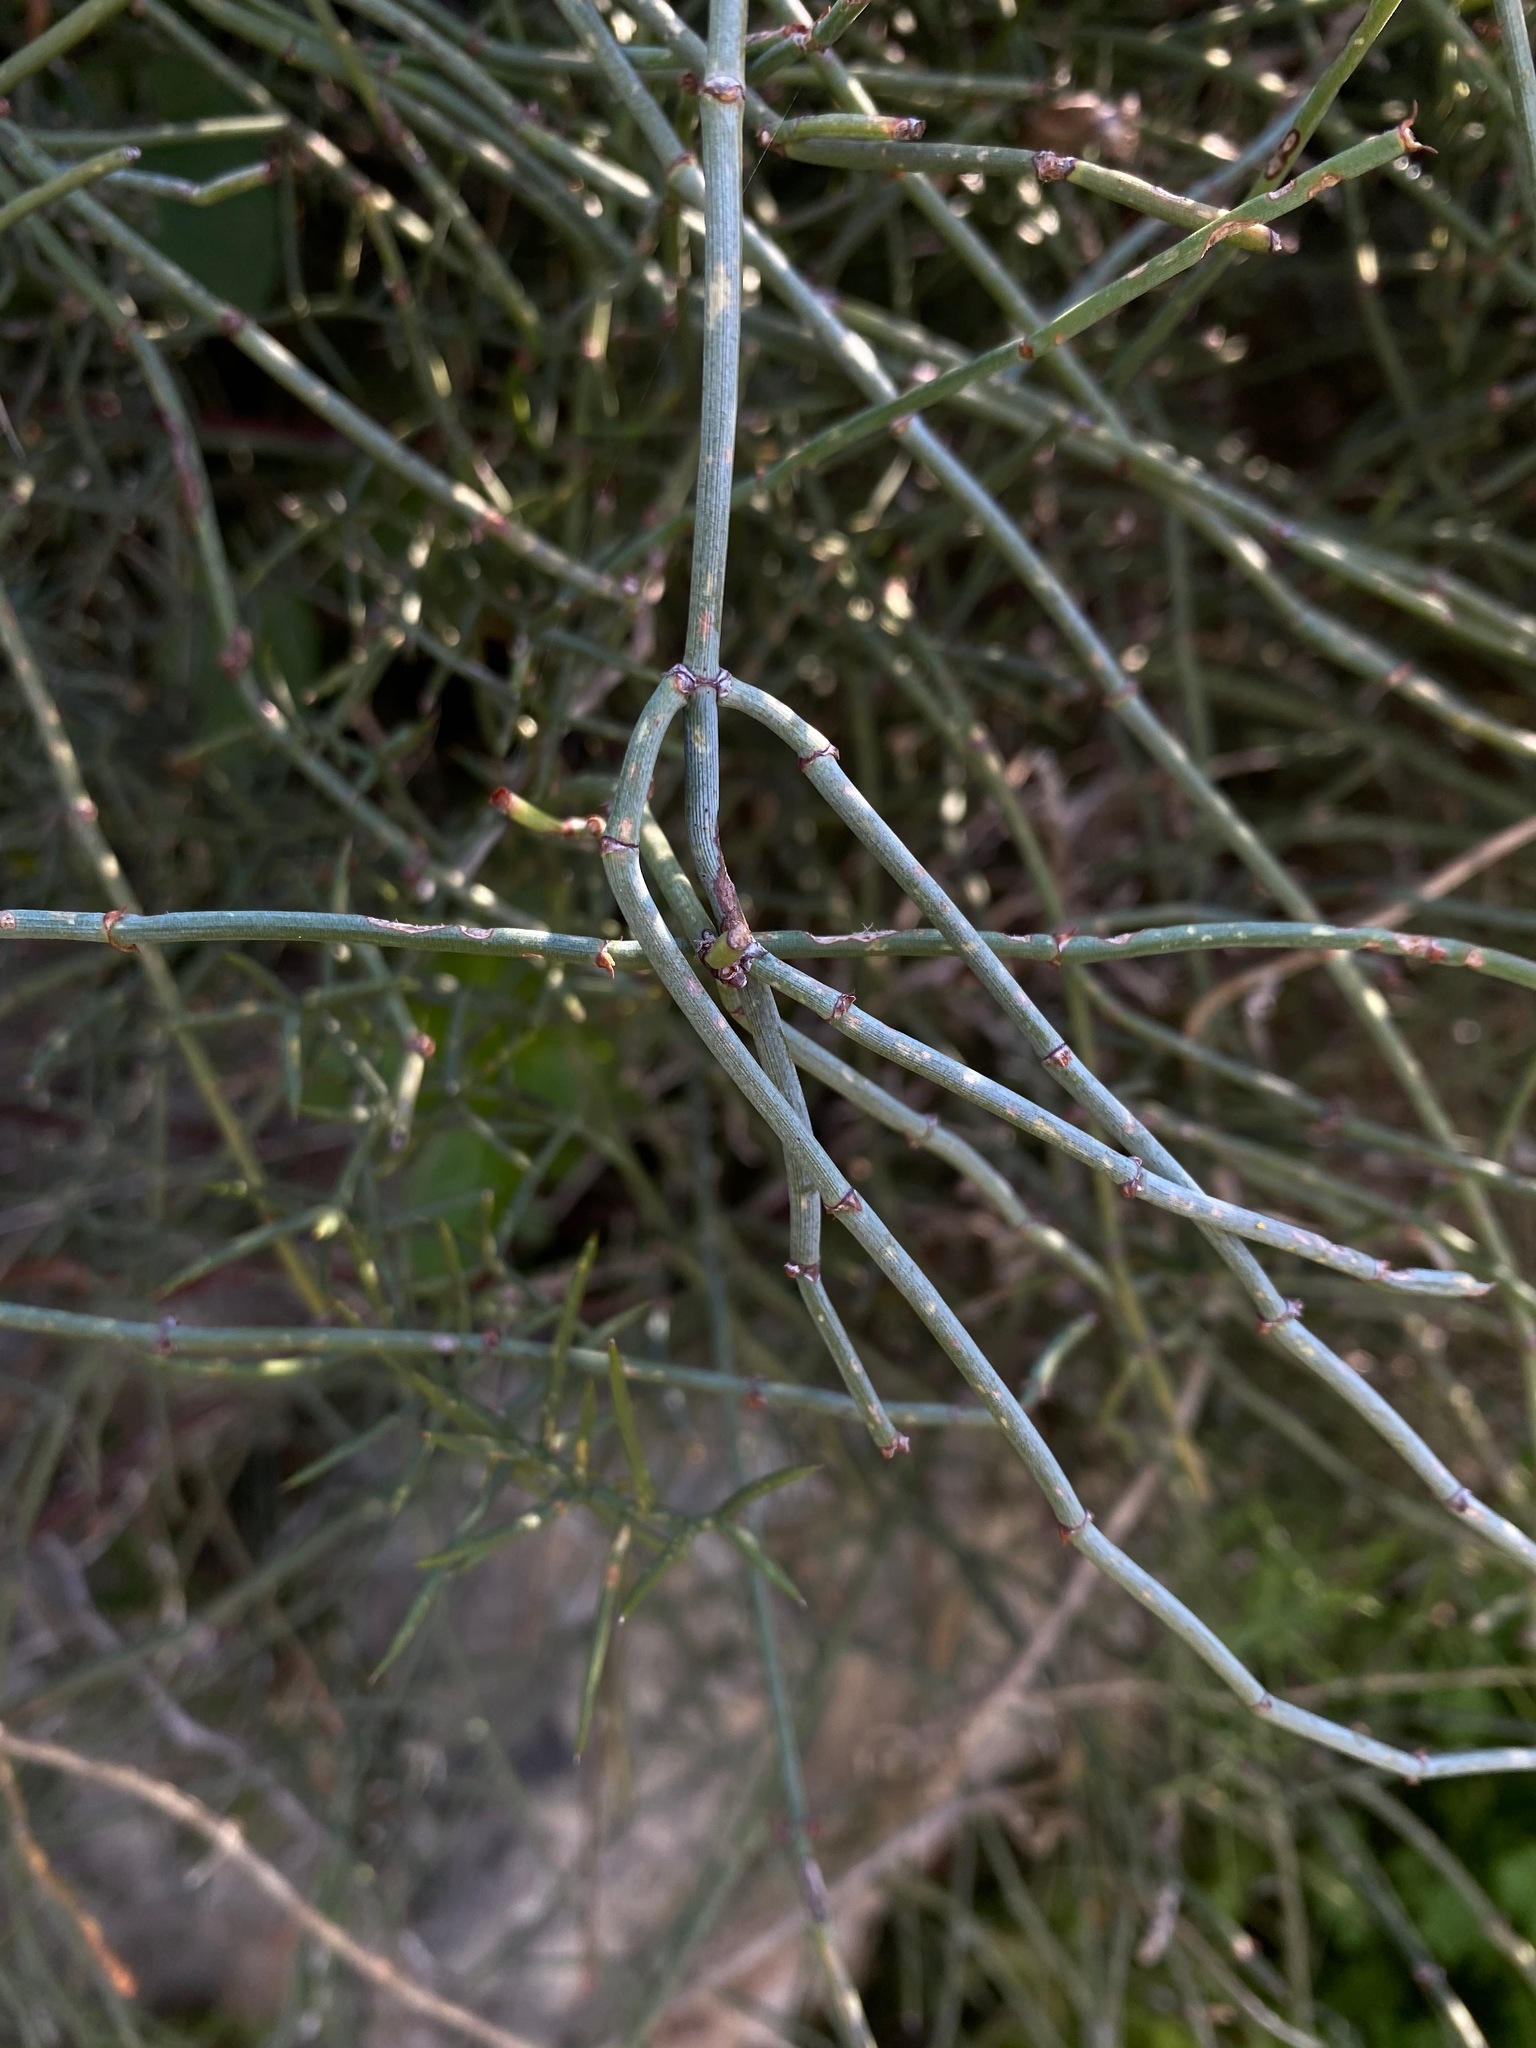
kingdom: Plantae
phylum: Tracheophyta
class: Gnetopsida
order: Ephedrales
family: Ephedraceae
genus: Ephedra
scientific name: Ephedra foeminea
